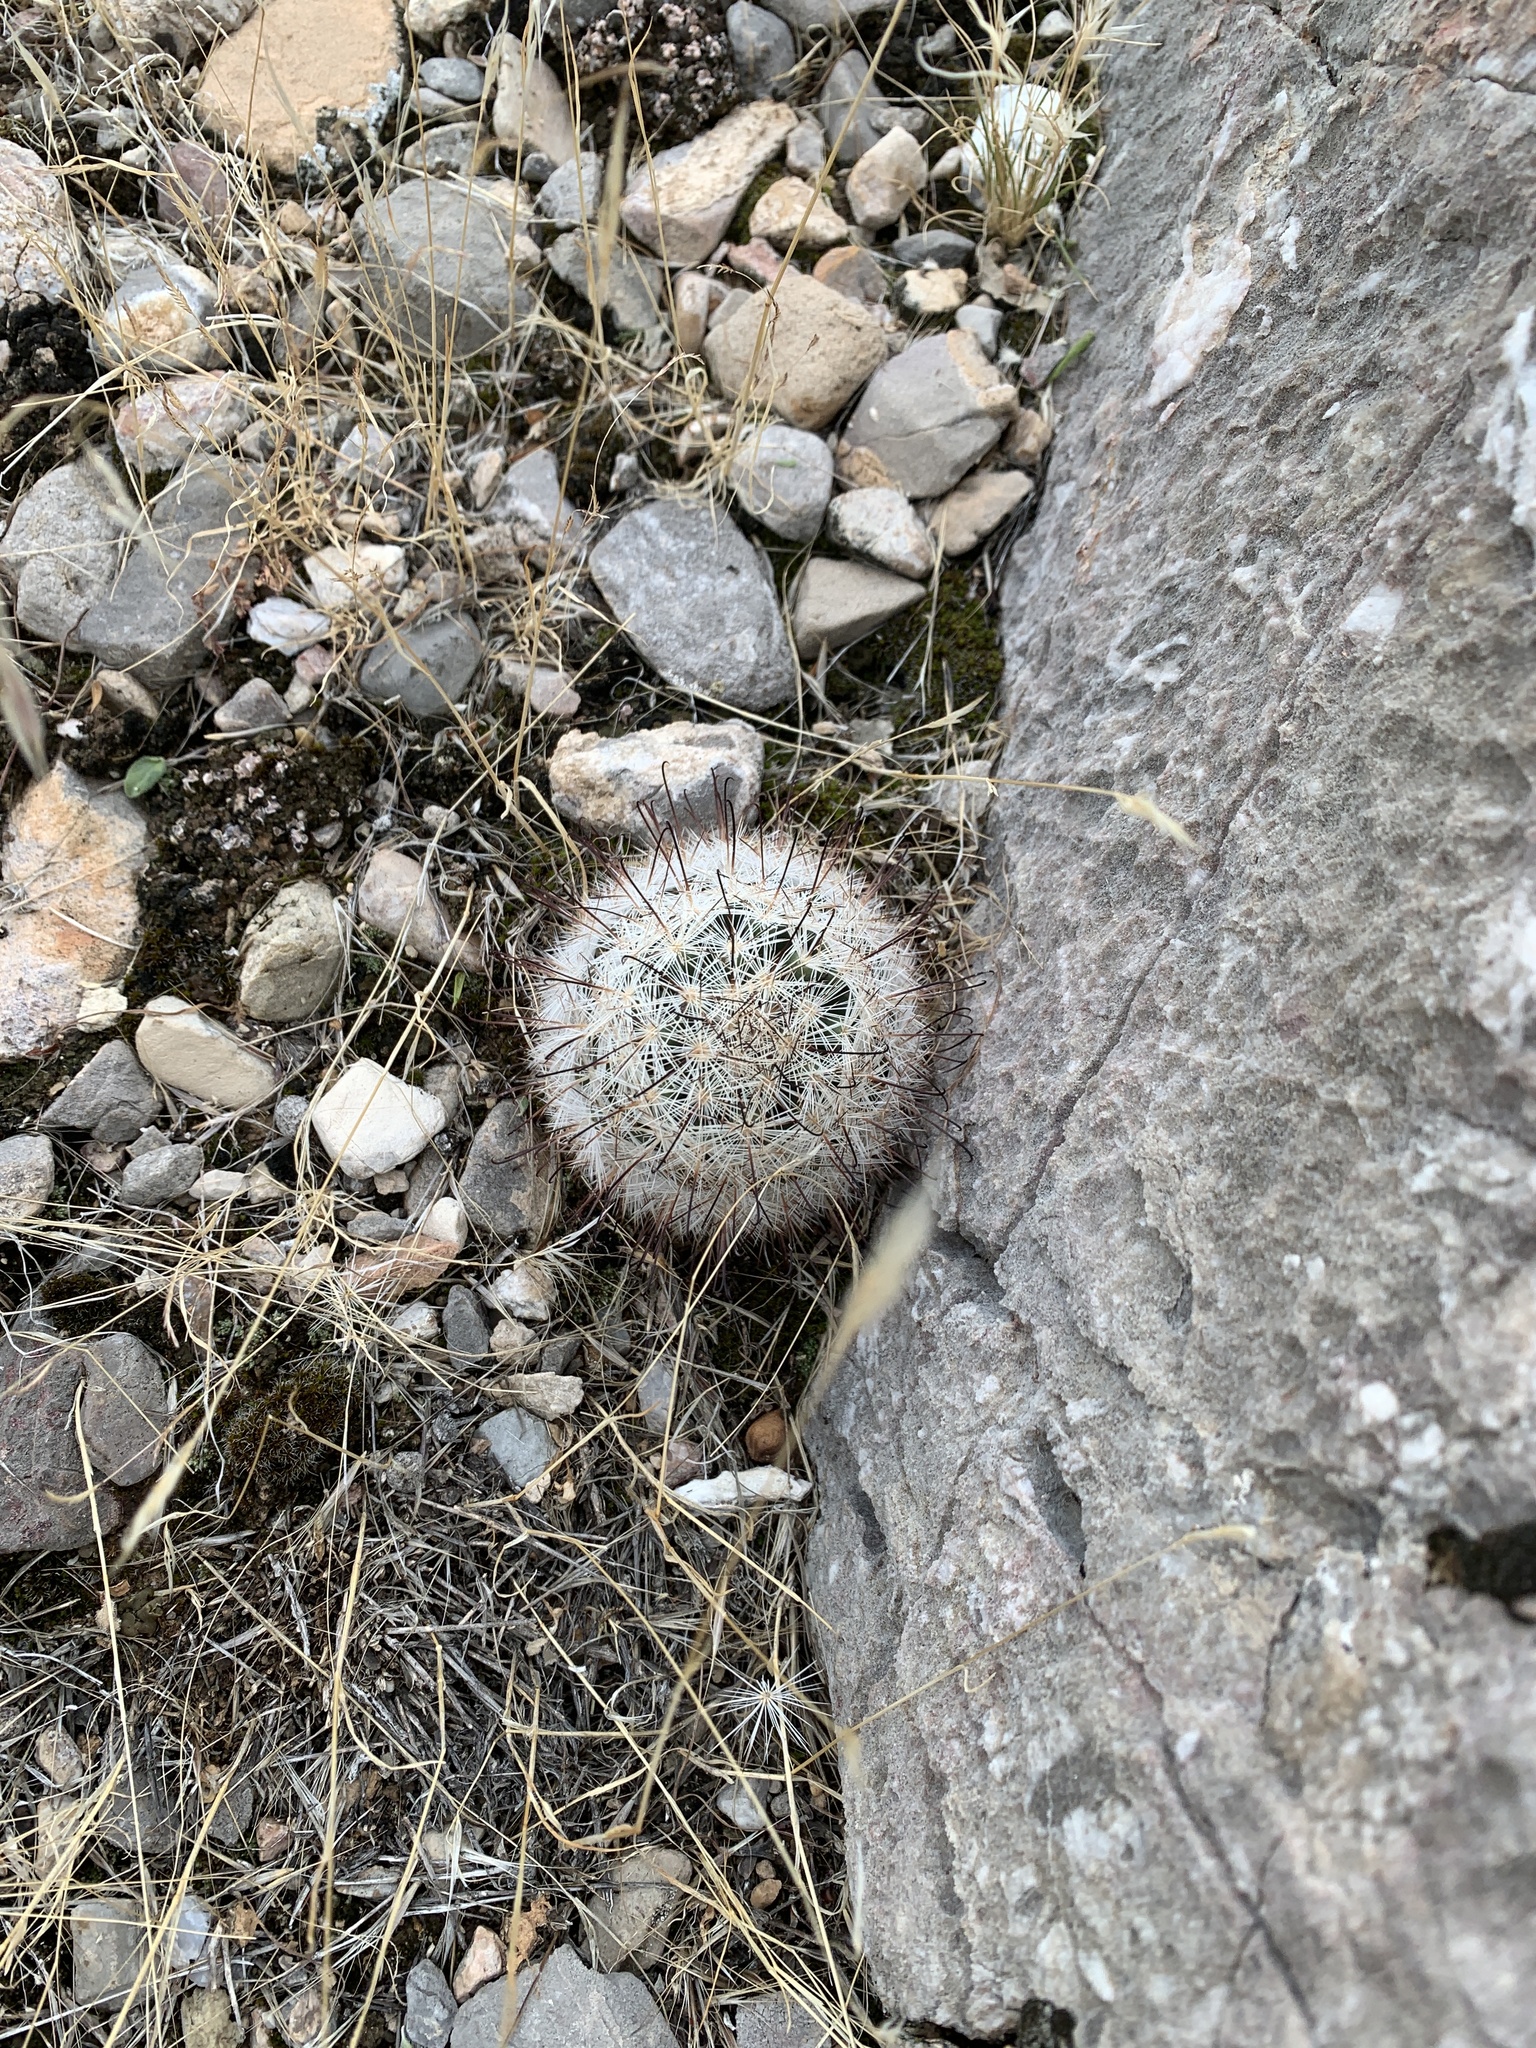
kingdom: Plantae
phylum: Tracheophyta
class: Magnoliopsida
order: Caryophyllales
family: Cactaceae
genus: Cochemiea
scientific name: Cochemiea tetrancistra
